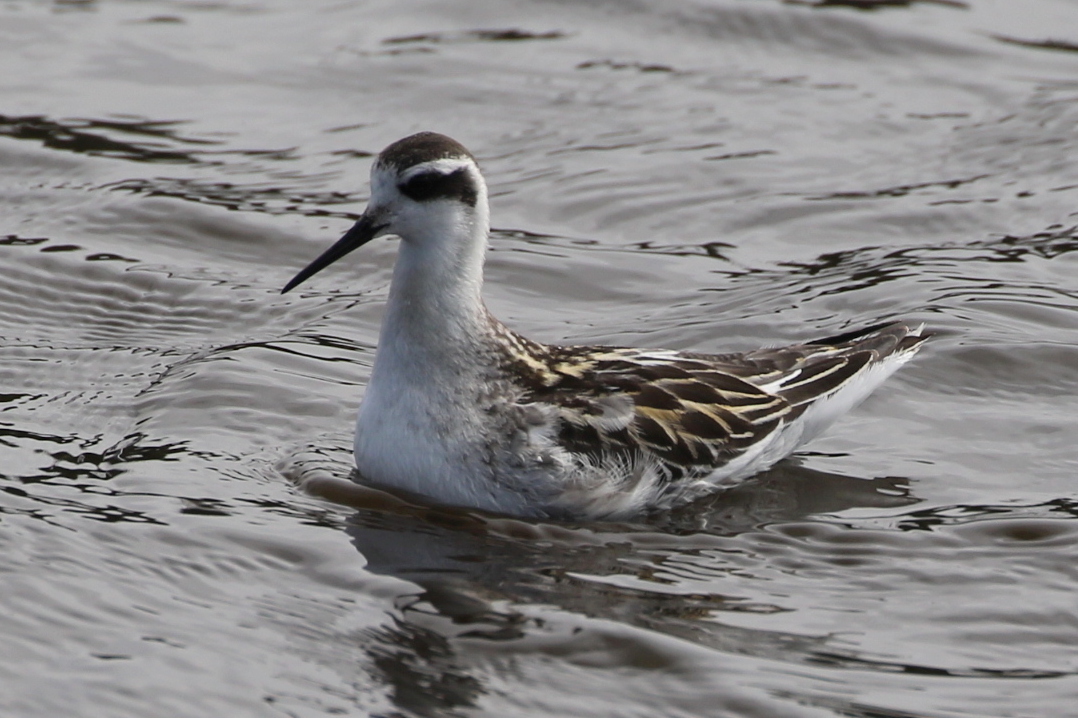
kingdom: Animalia
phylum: Chordata
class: Aves
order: Charadriiformes
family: Scolopacidae
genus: Phalaropus
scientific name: Phalaropus lobatus
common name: Red-necked phalarope
